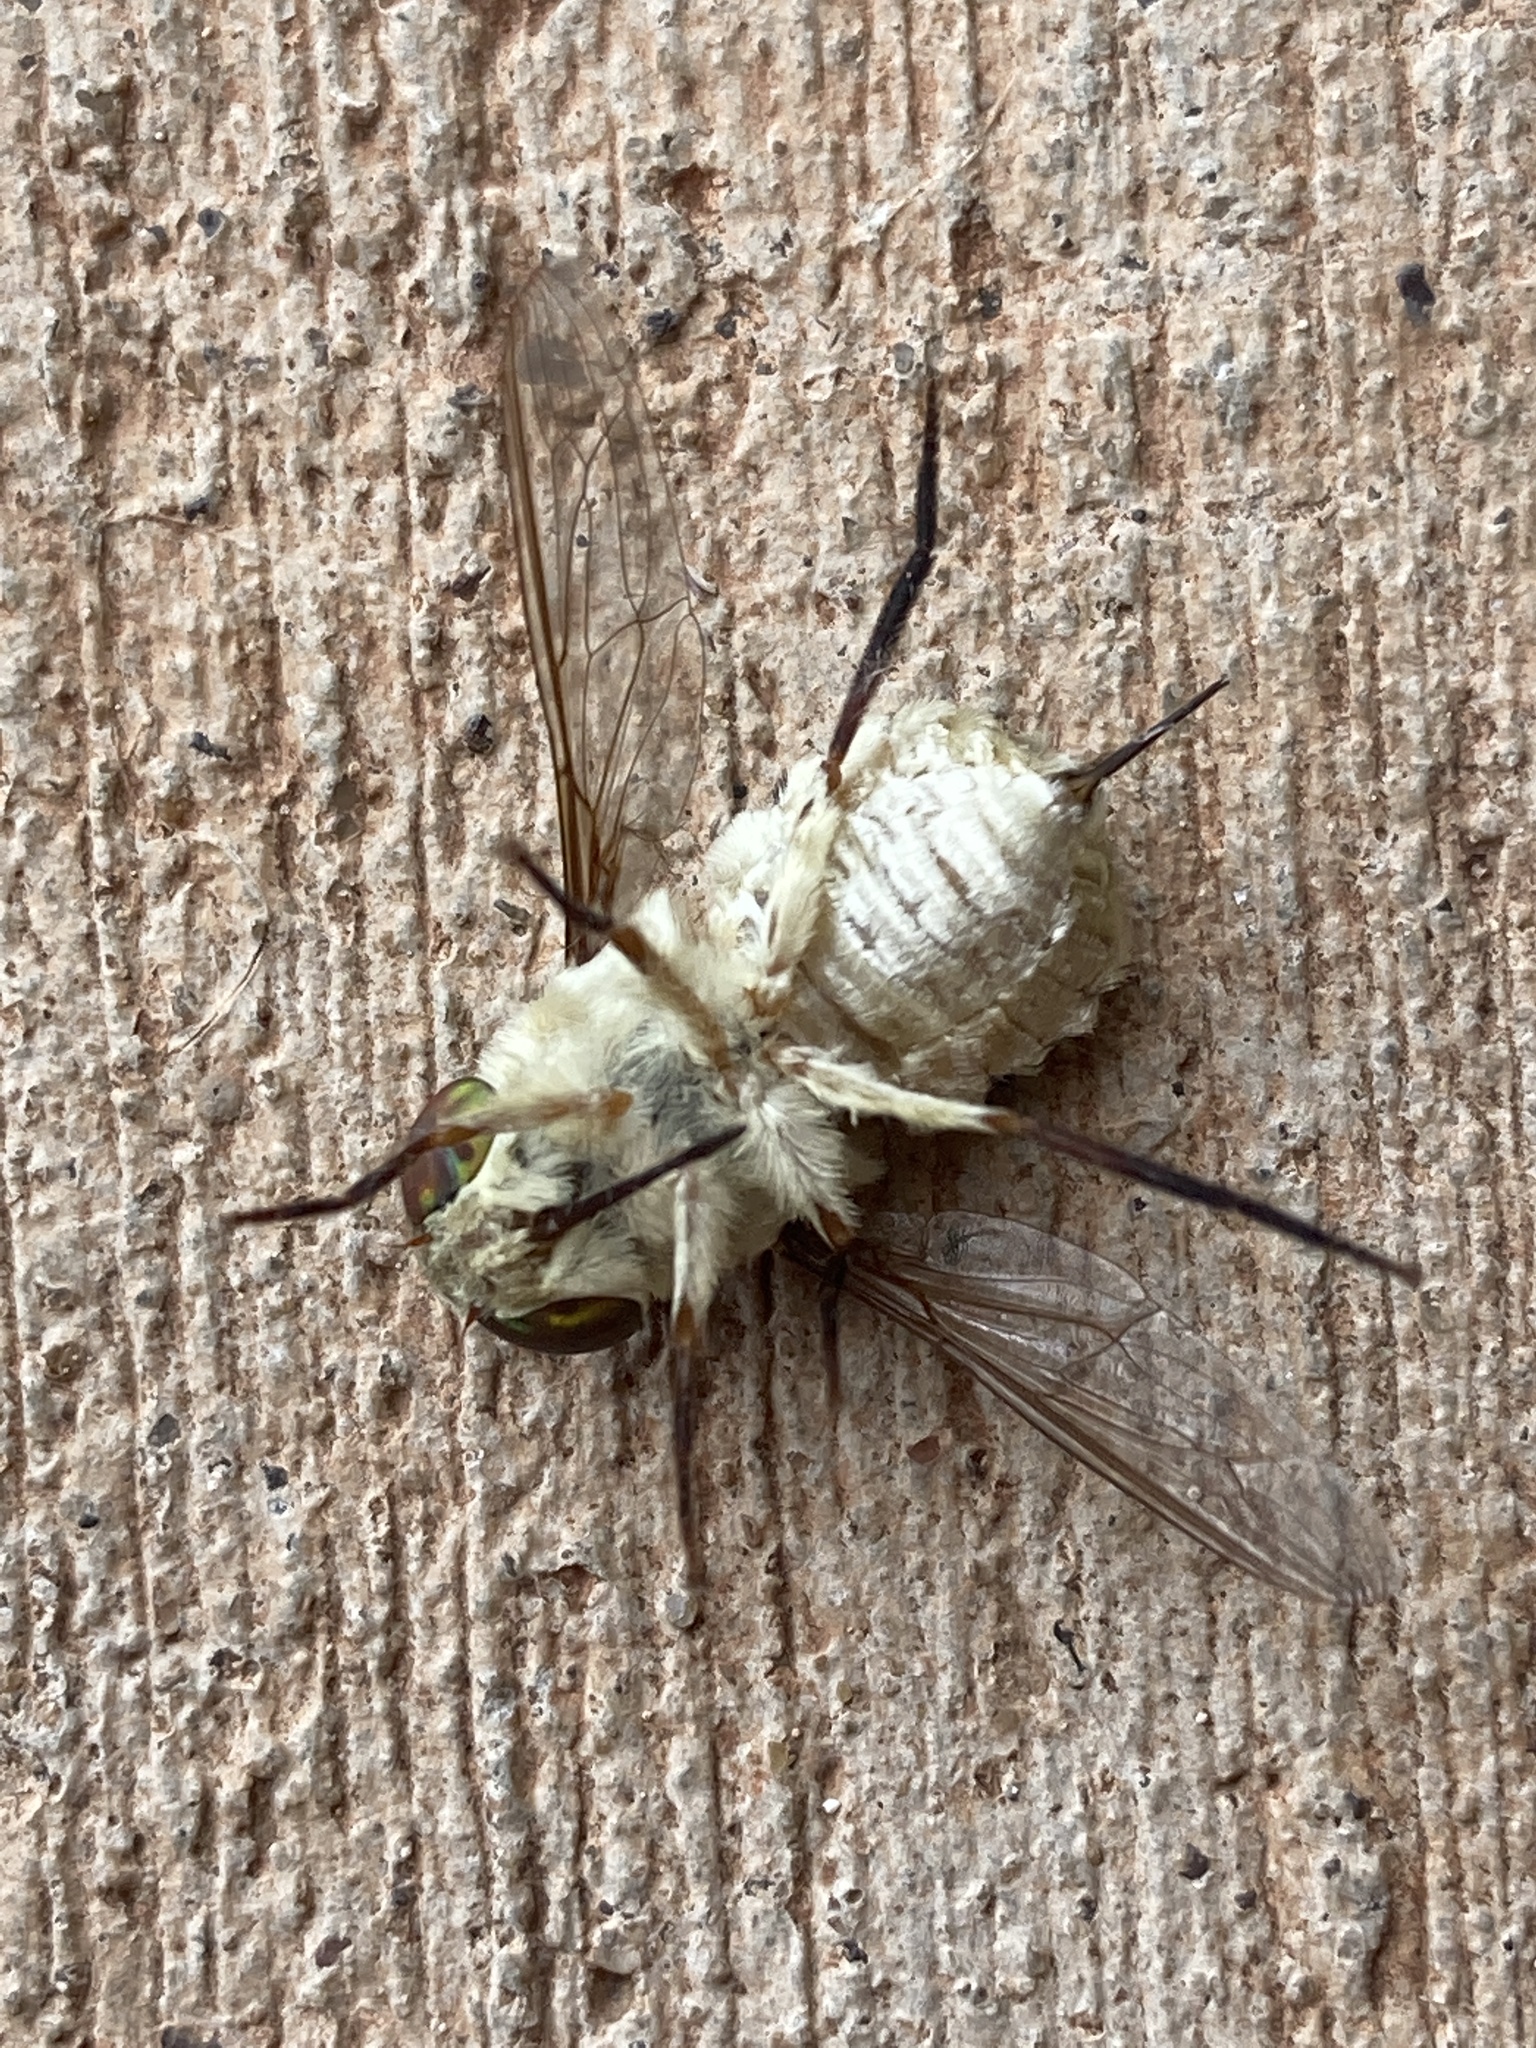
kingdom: Animalia
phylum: Arthropoda
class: Insecta
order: Diptera
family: Nemestrinidae
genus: Neorhynchocephalus
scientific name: Neorhynchocephalus volaticus
